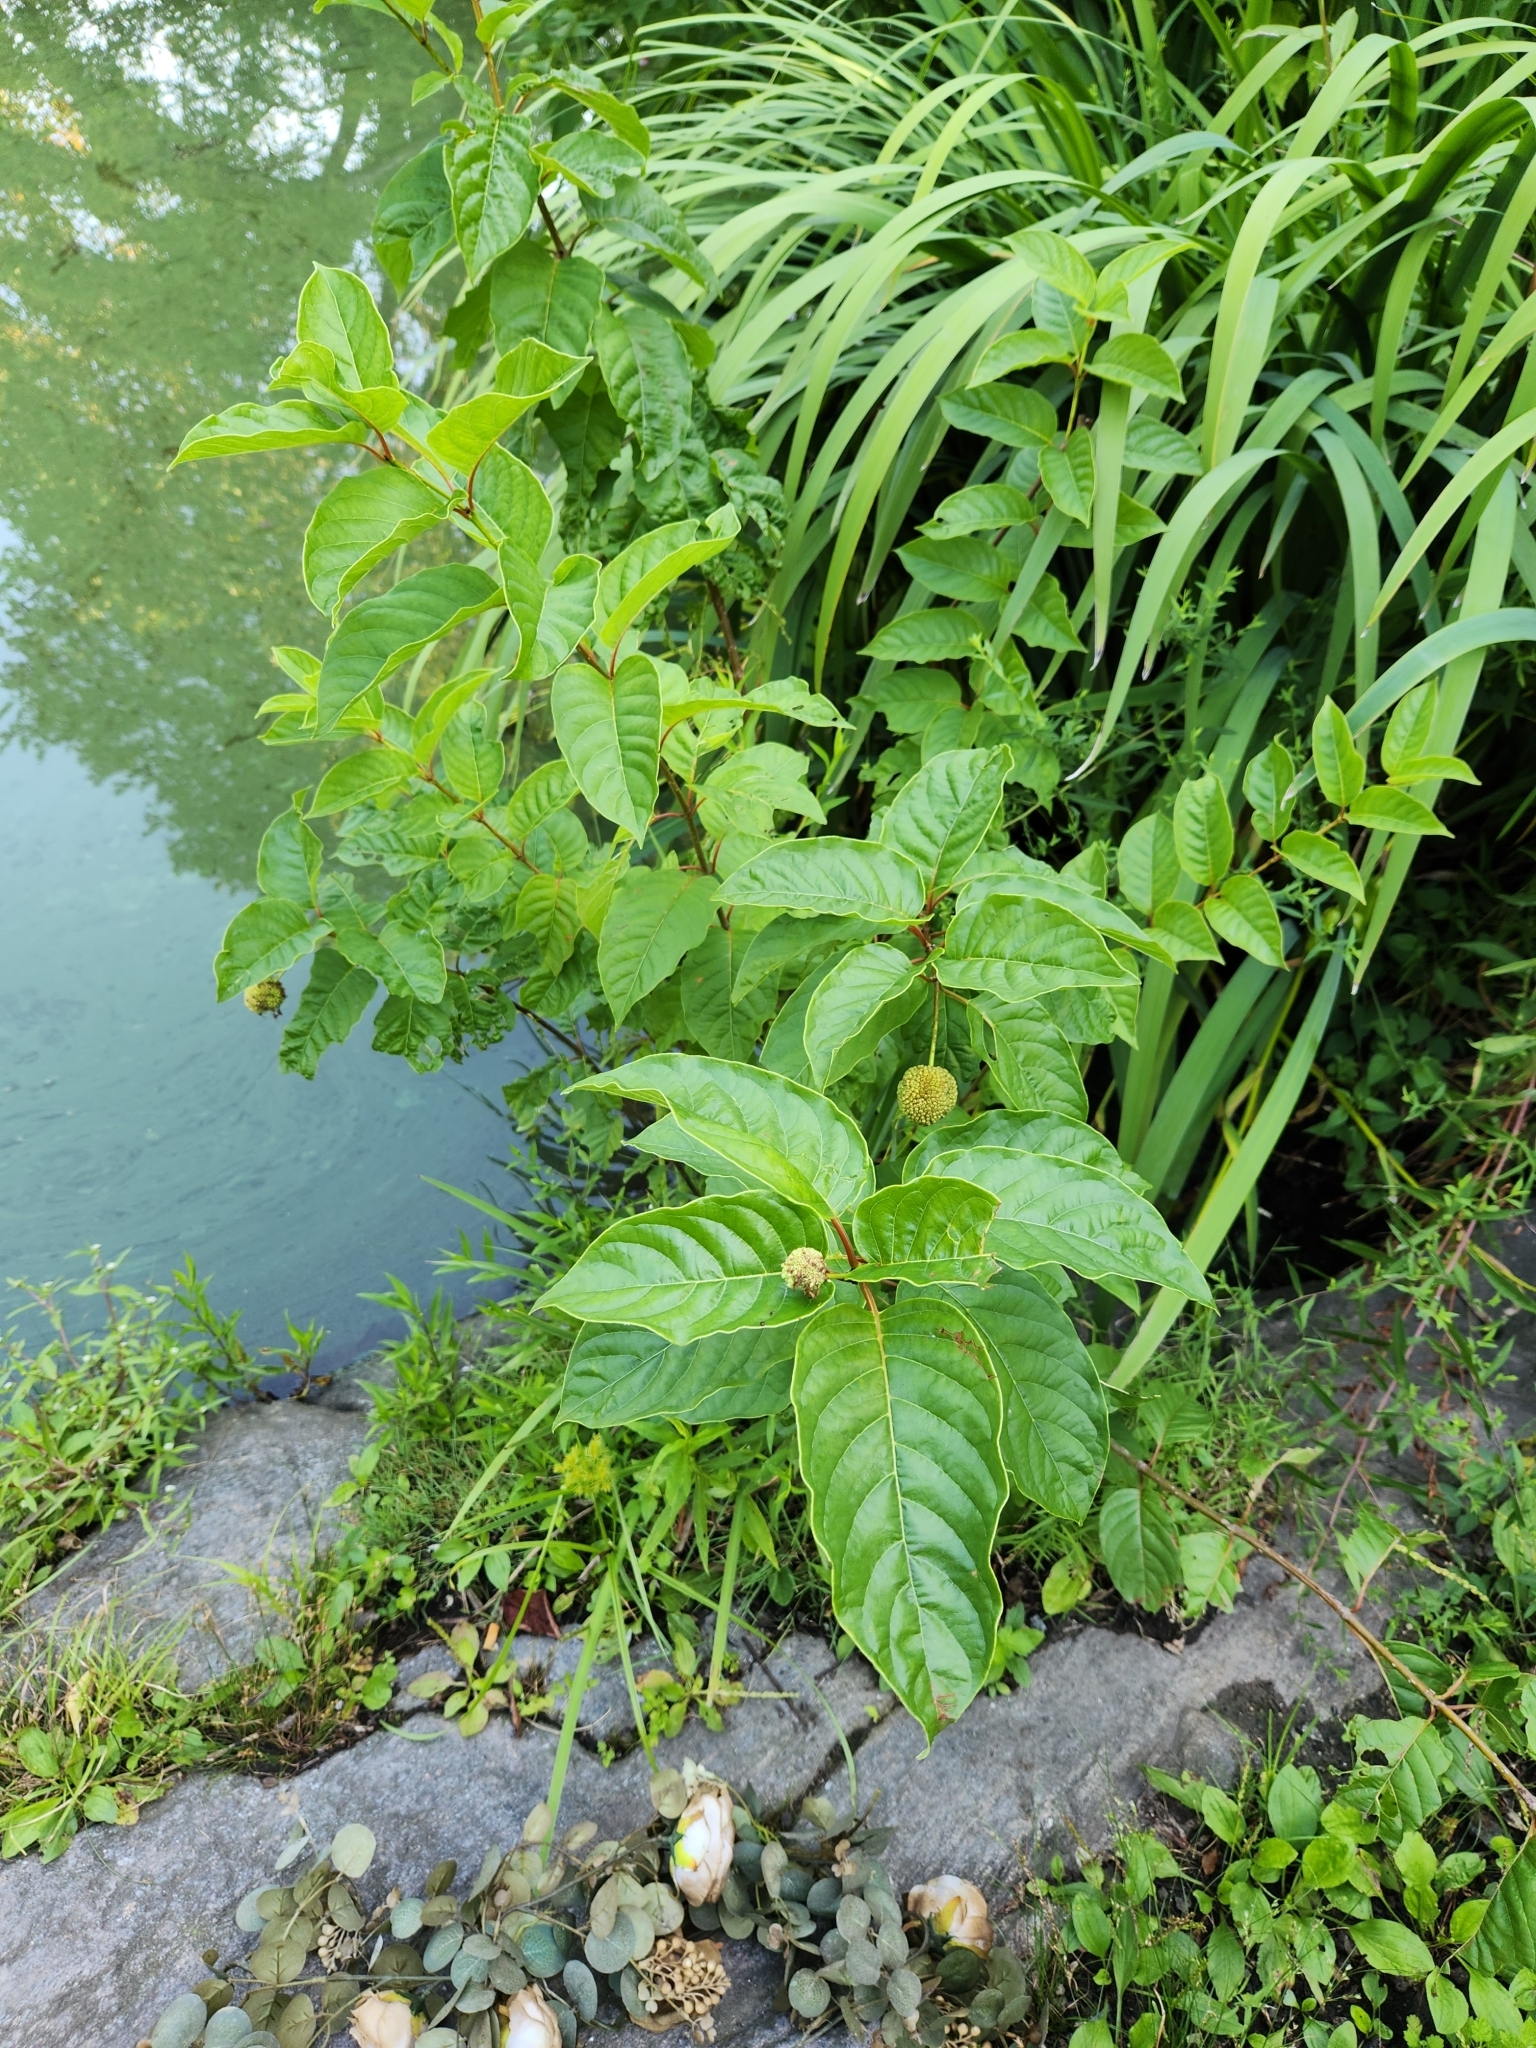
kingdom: Plantae
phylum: Tracheophyta
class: Magnoliopsida
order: Gentianales
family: Rubiaceae
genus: Cephalanthus
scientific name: Cephalanthus occidentalis
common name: Button-willow
